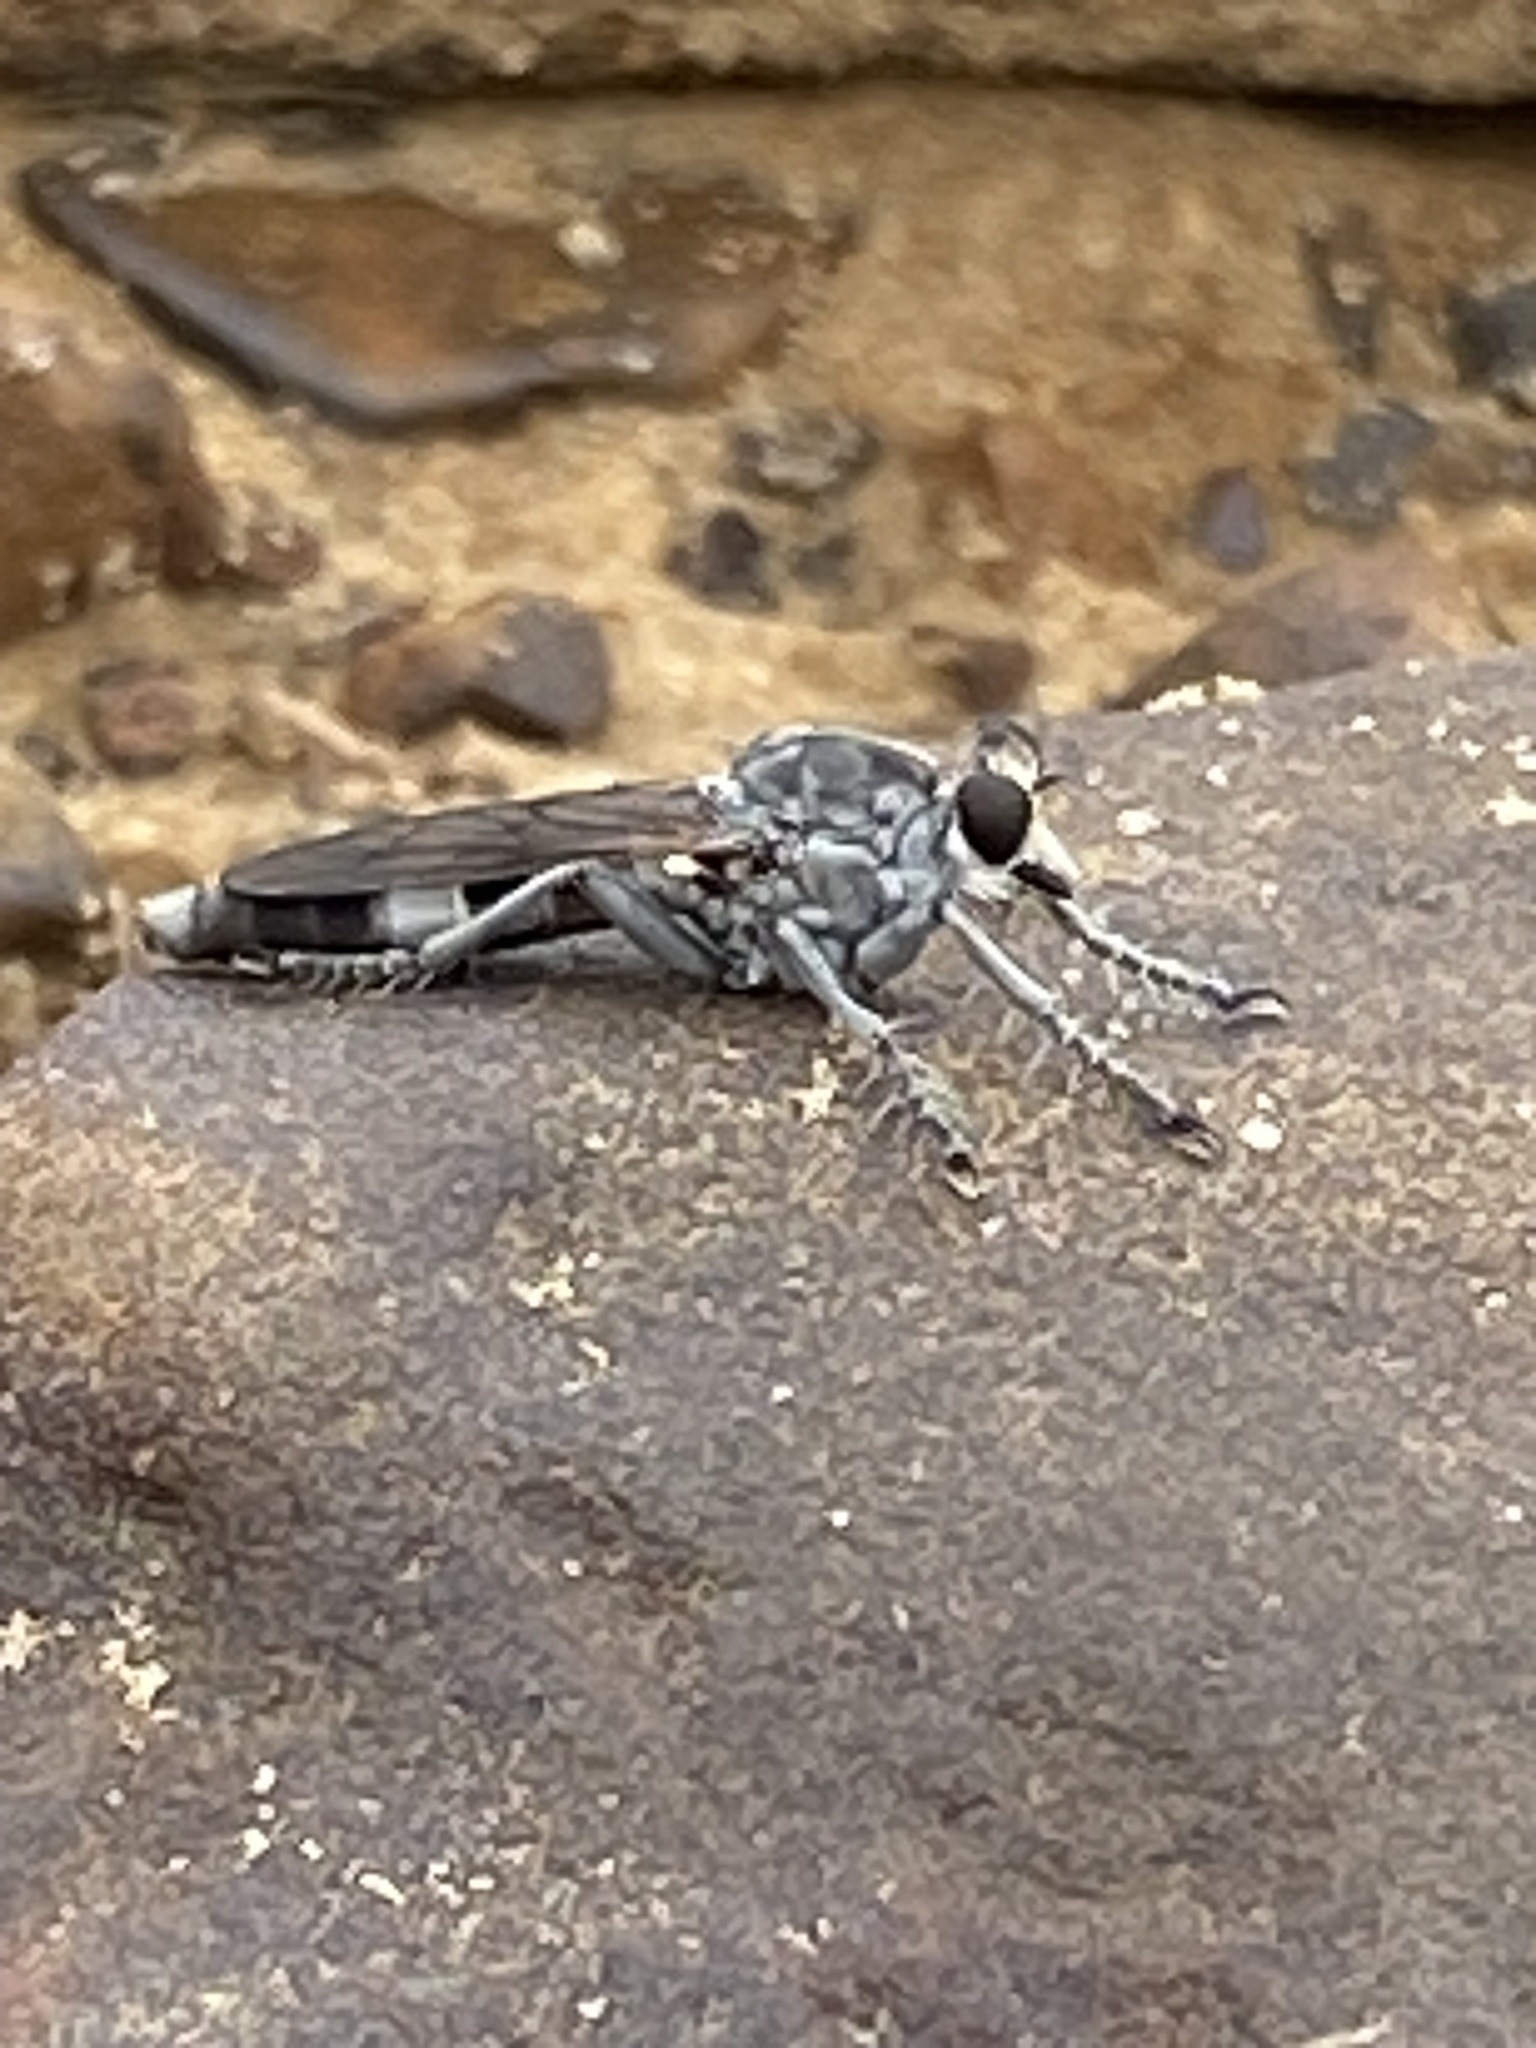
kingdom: Animalia
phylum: Arthropoda
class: Insecta
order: Diptera
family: Asilidae
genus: Stichopogon
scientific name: Stichopogon trifasciatus
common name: Three-banded robber fly
